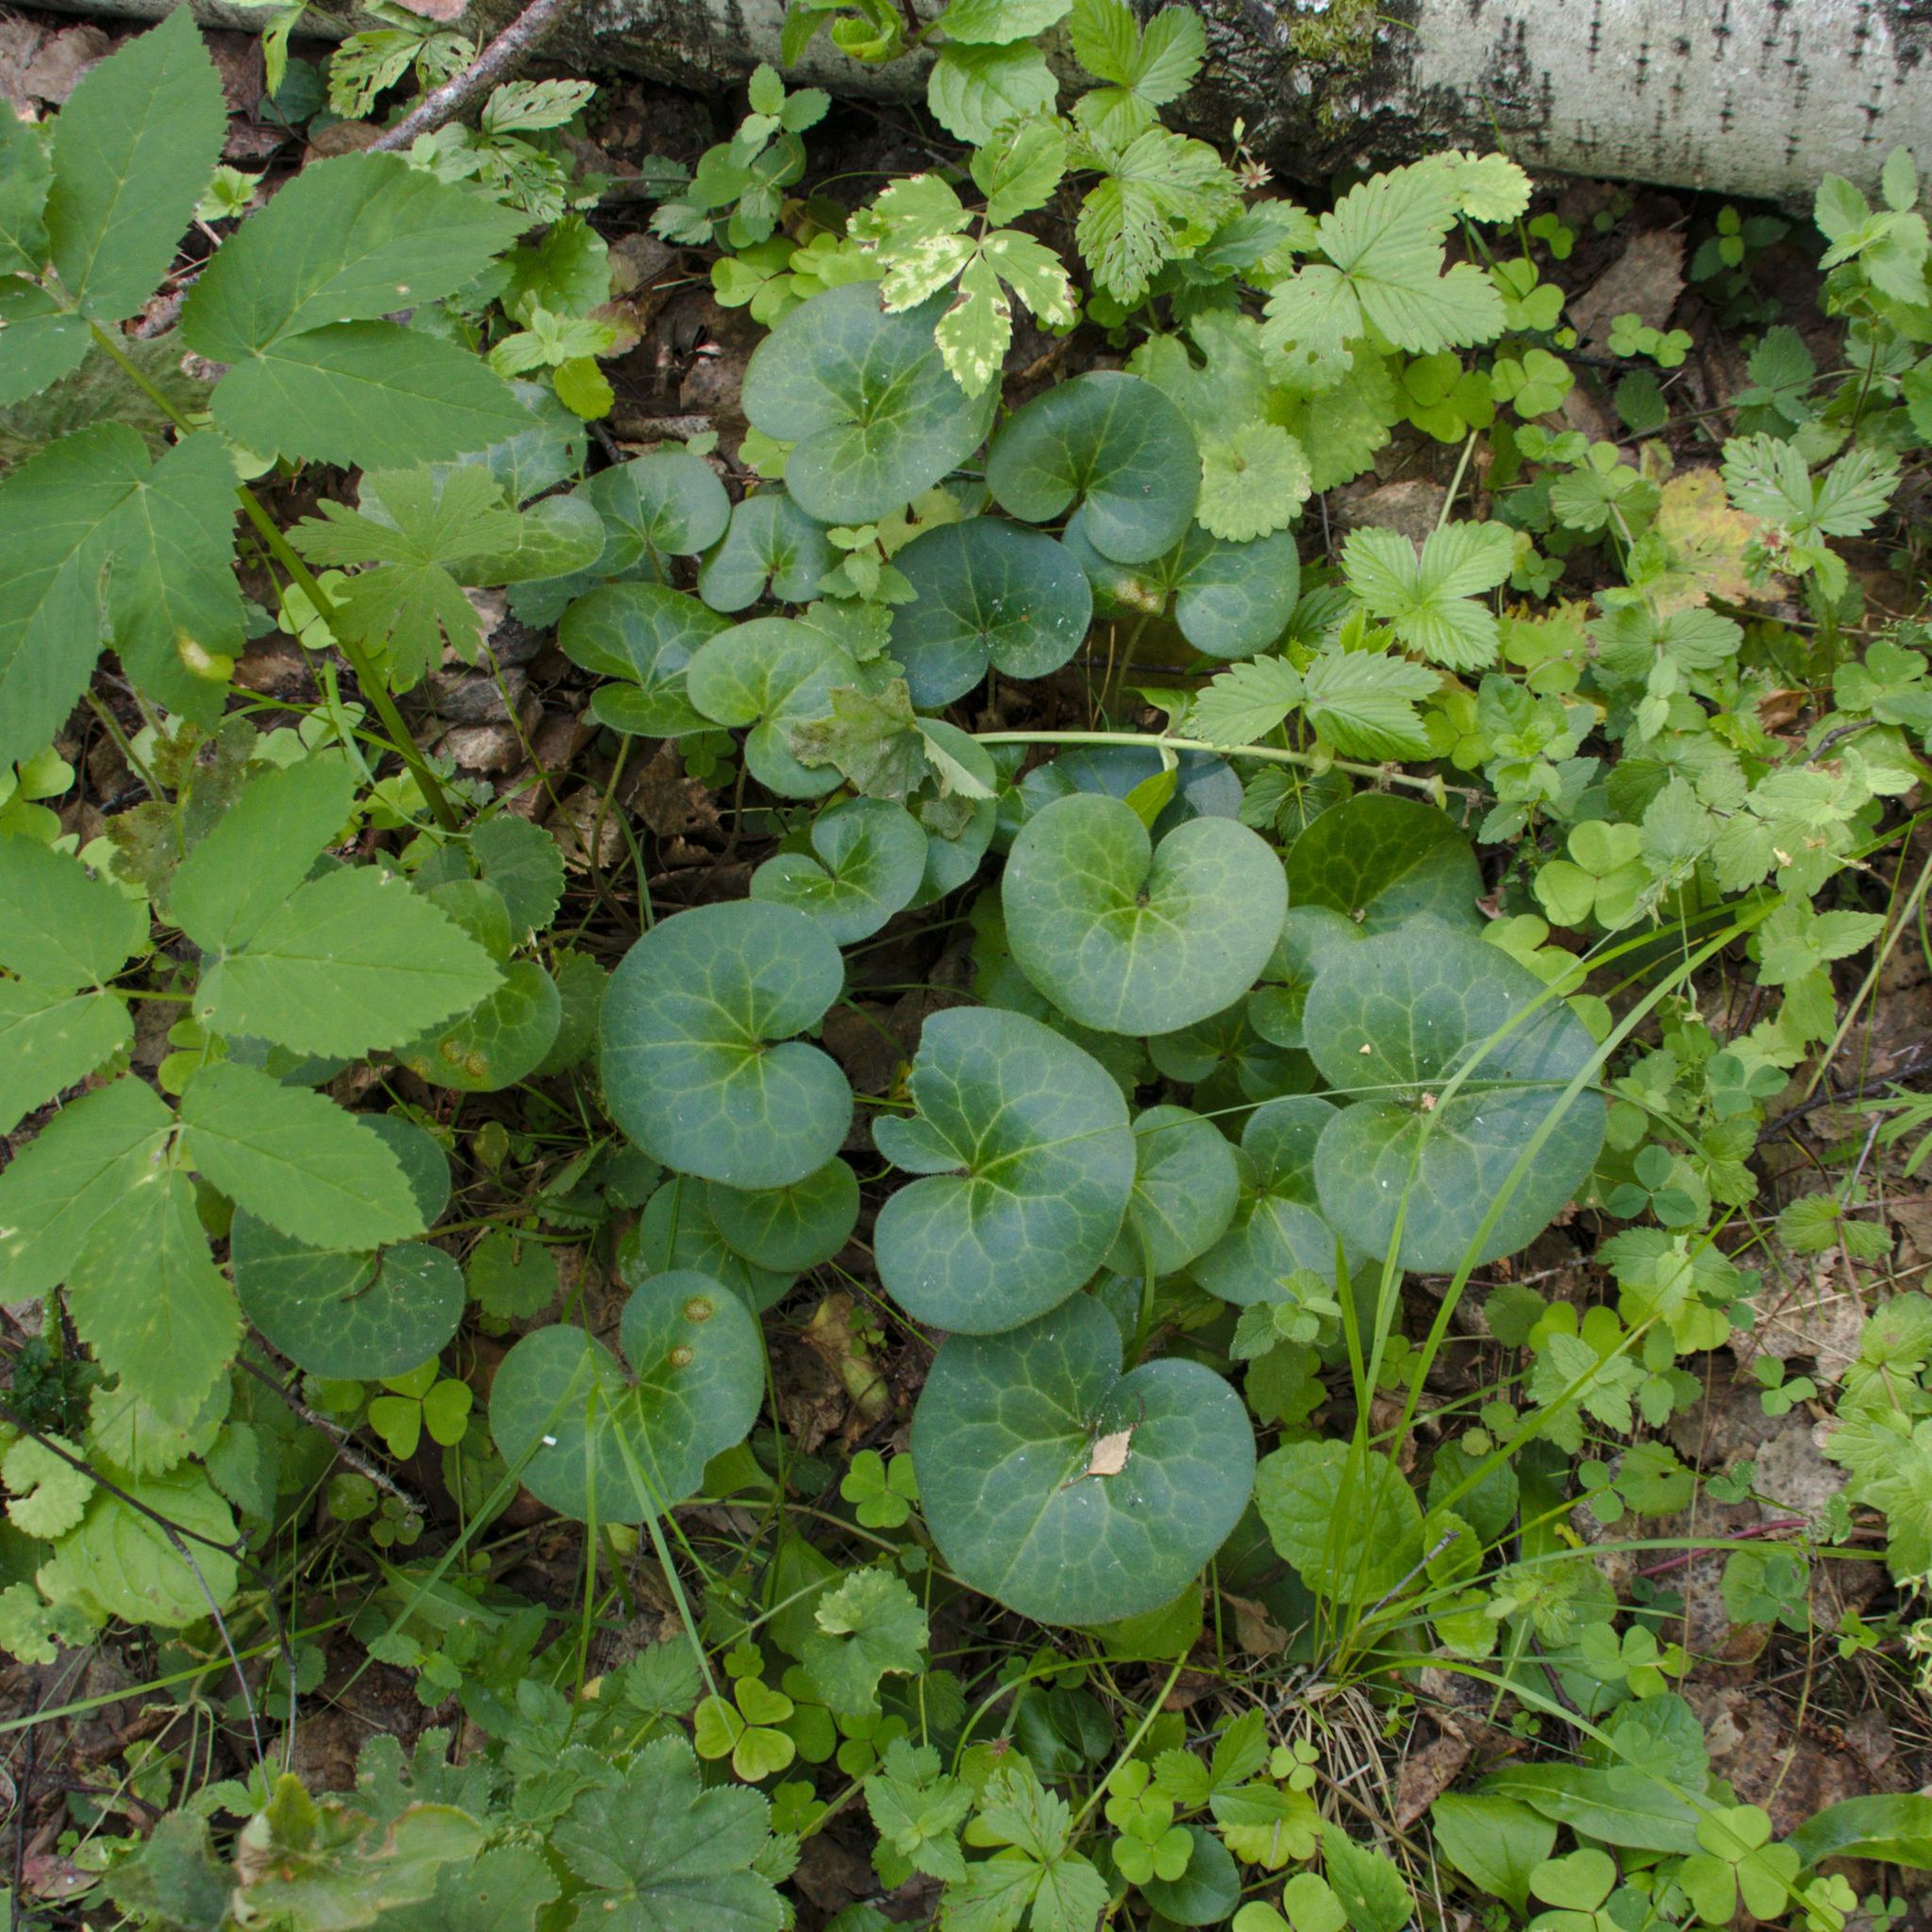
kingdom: Plantae
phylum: Tracheophyta
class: Magnoliopsida
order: Piperales
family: Aristolochiaceae
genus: Asarum
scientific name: Asarum europaeum
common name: Asarabacca
